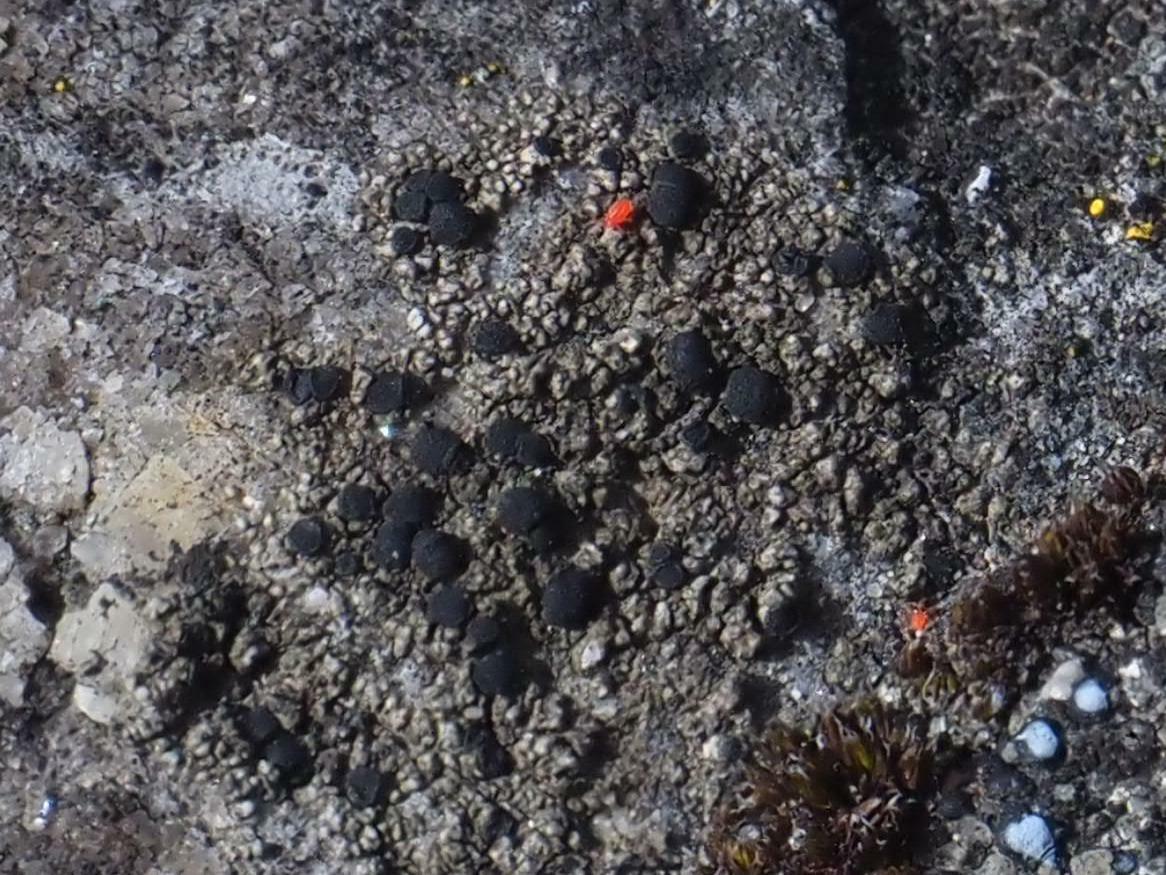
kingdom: Fungi
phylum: Ascomycota
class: Lecanoromycetes
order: Lecanorales
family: Lecanoraceae
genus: Lecidella
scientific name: Lecidella stigmatea
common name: Limestone disc lichen
